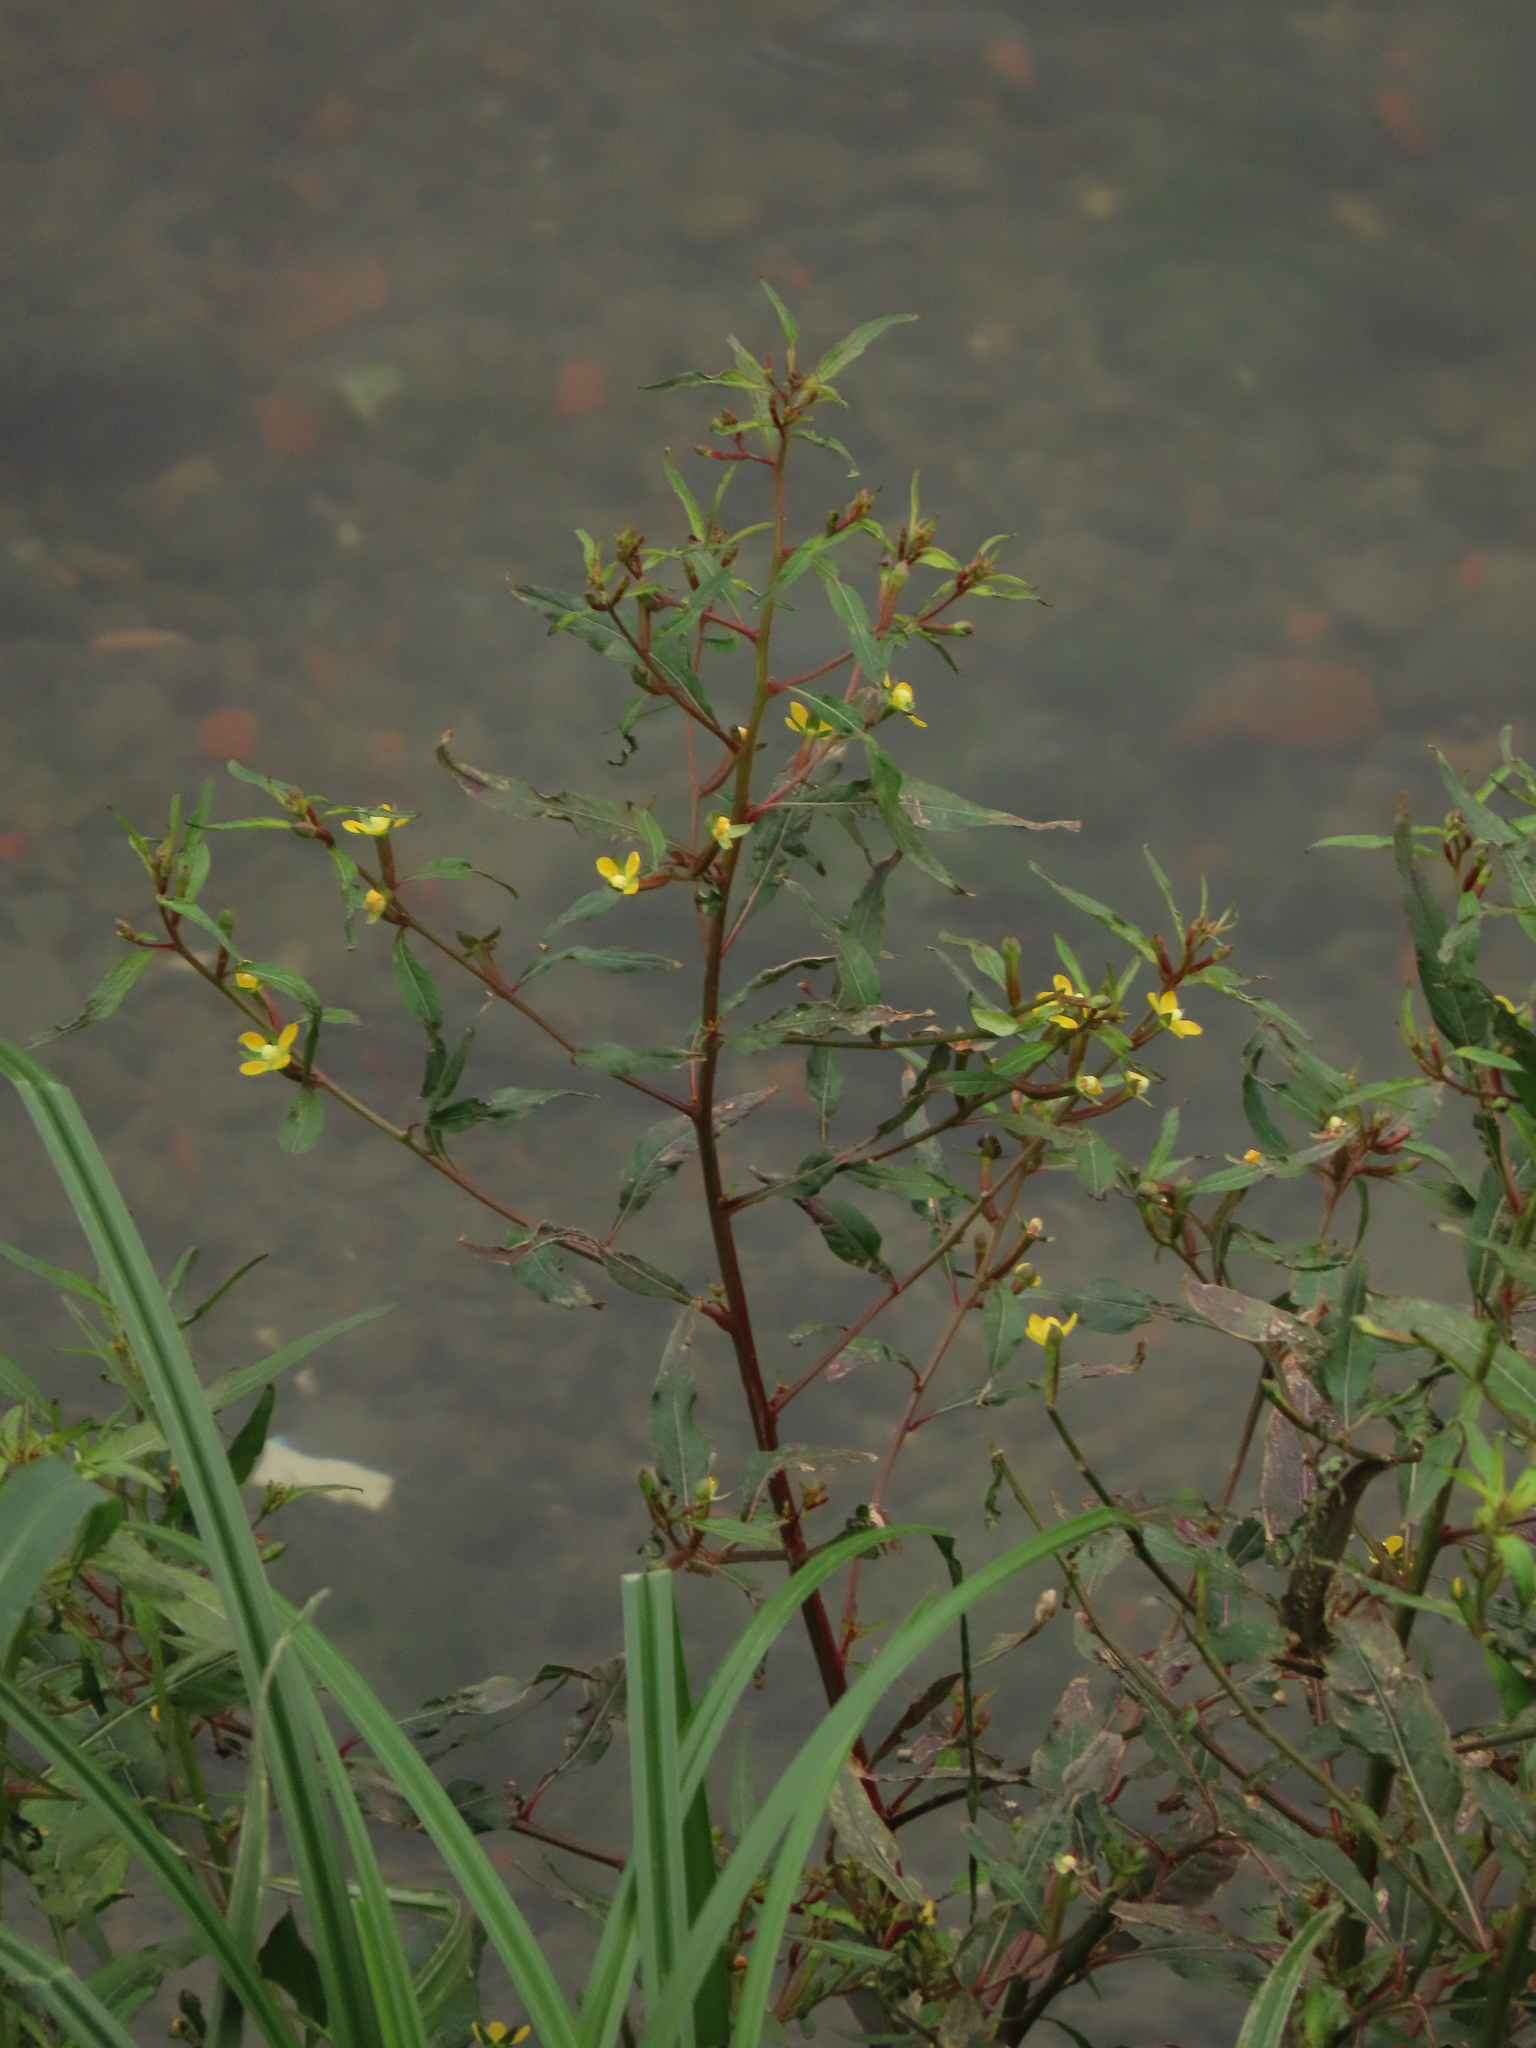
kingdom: Plantae
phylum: Tracheophyta
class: Magnoliopsida
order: Myrtales
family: Onagraceae
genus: Ludwigia
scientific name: Ludwigia erecta
